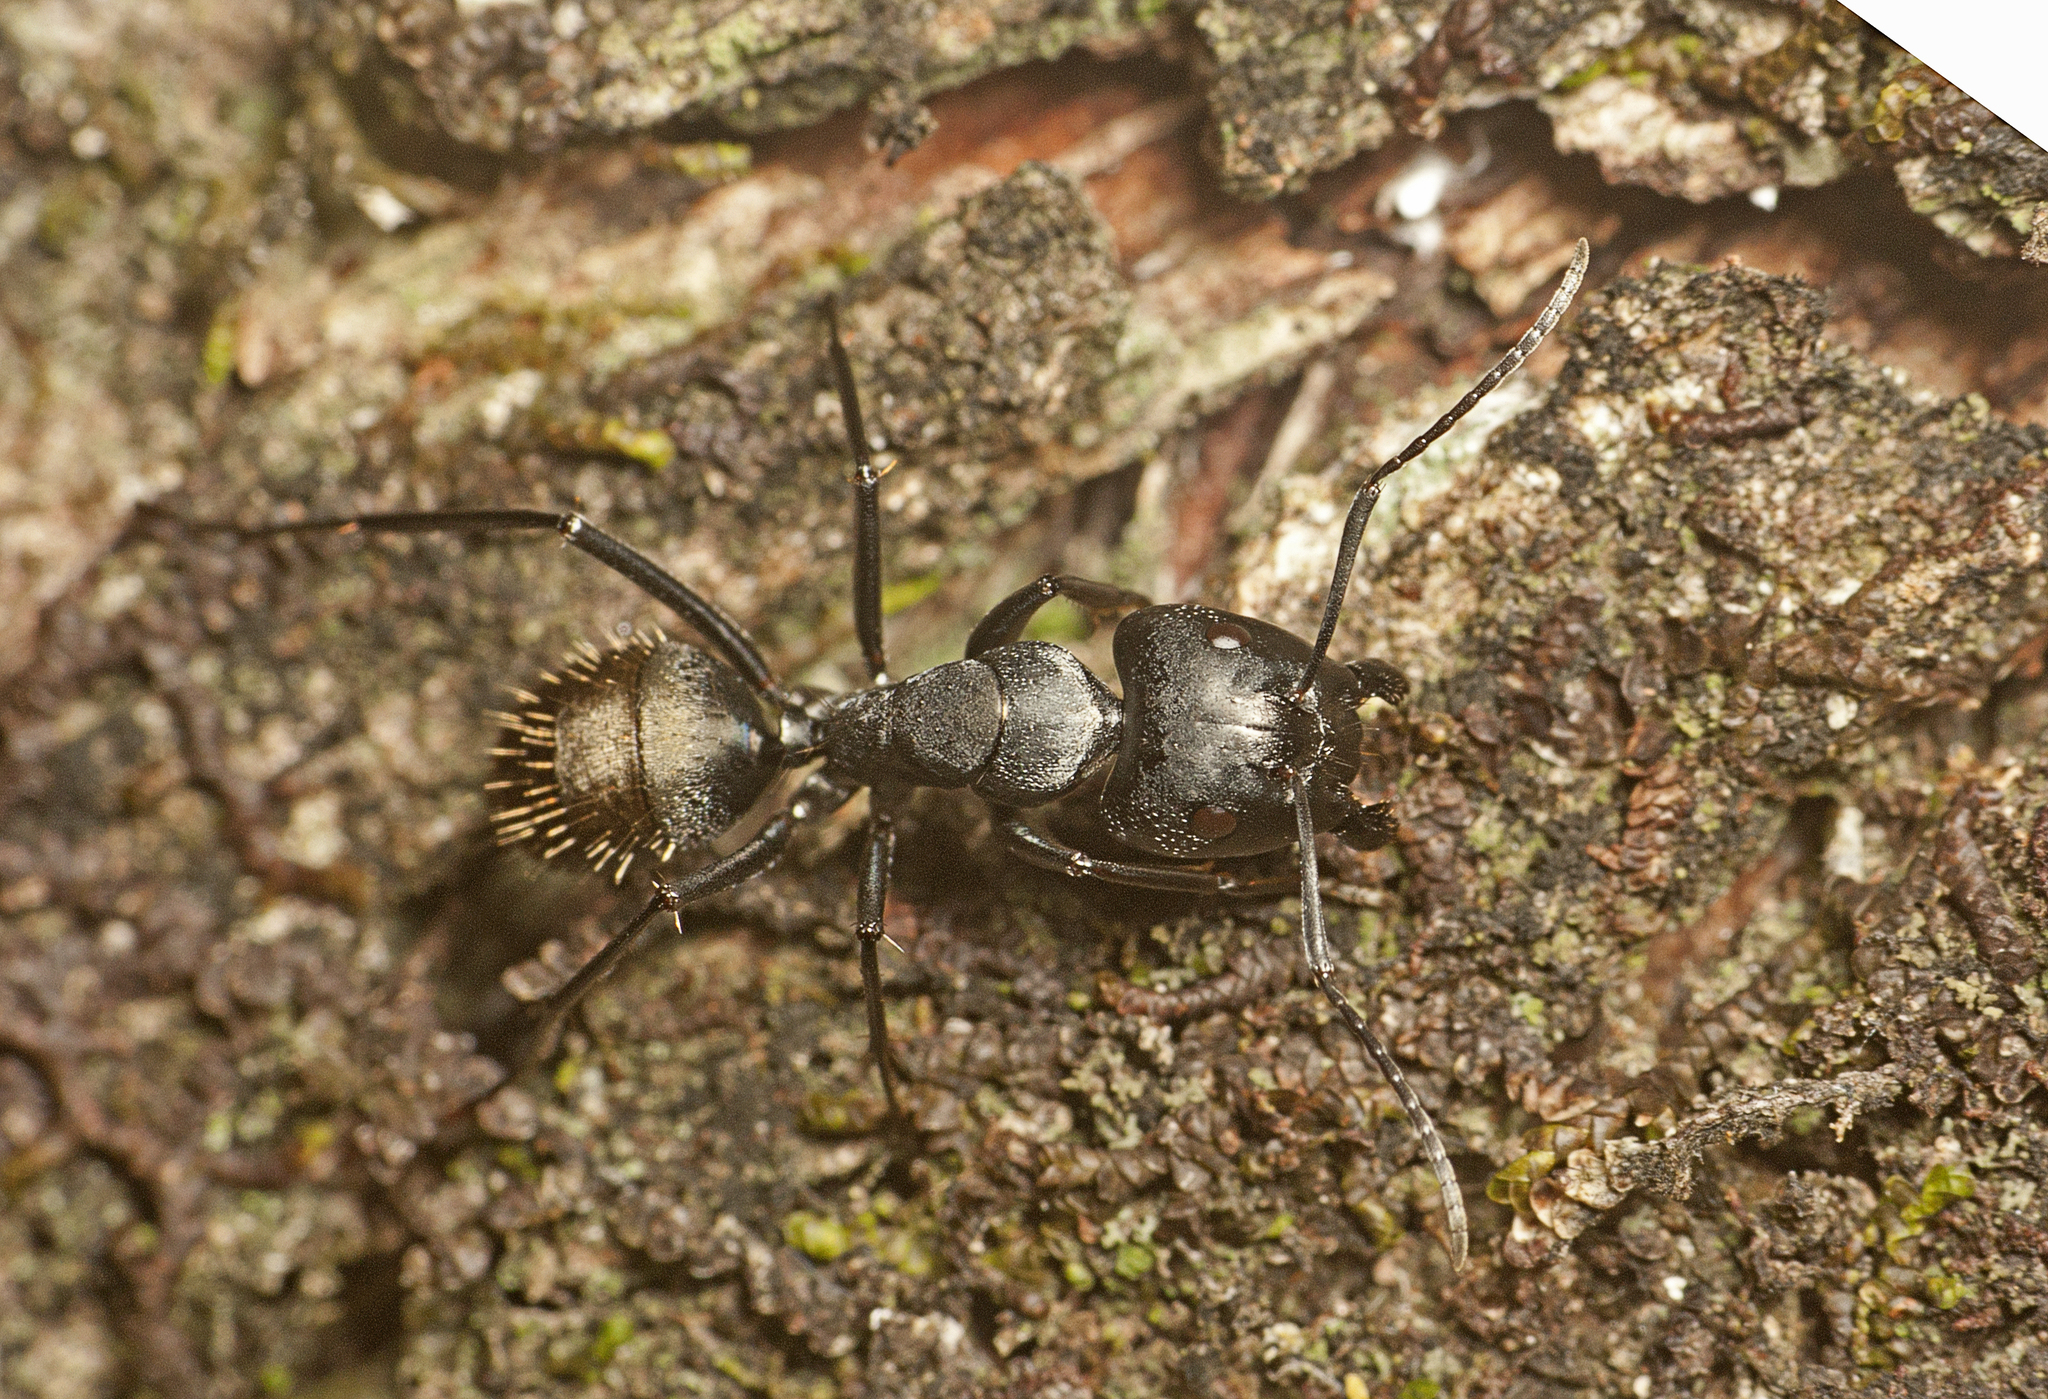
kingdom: Animalia
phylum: Arthropoda
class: Insecta
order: Hymenoptera
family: Formicidae
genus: Camponotus
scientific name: Camponotus aeneopilosus
